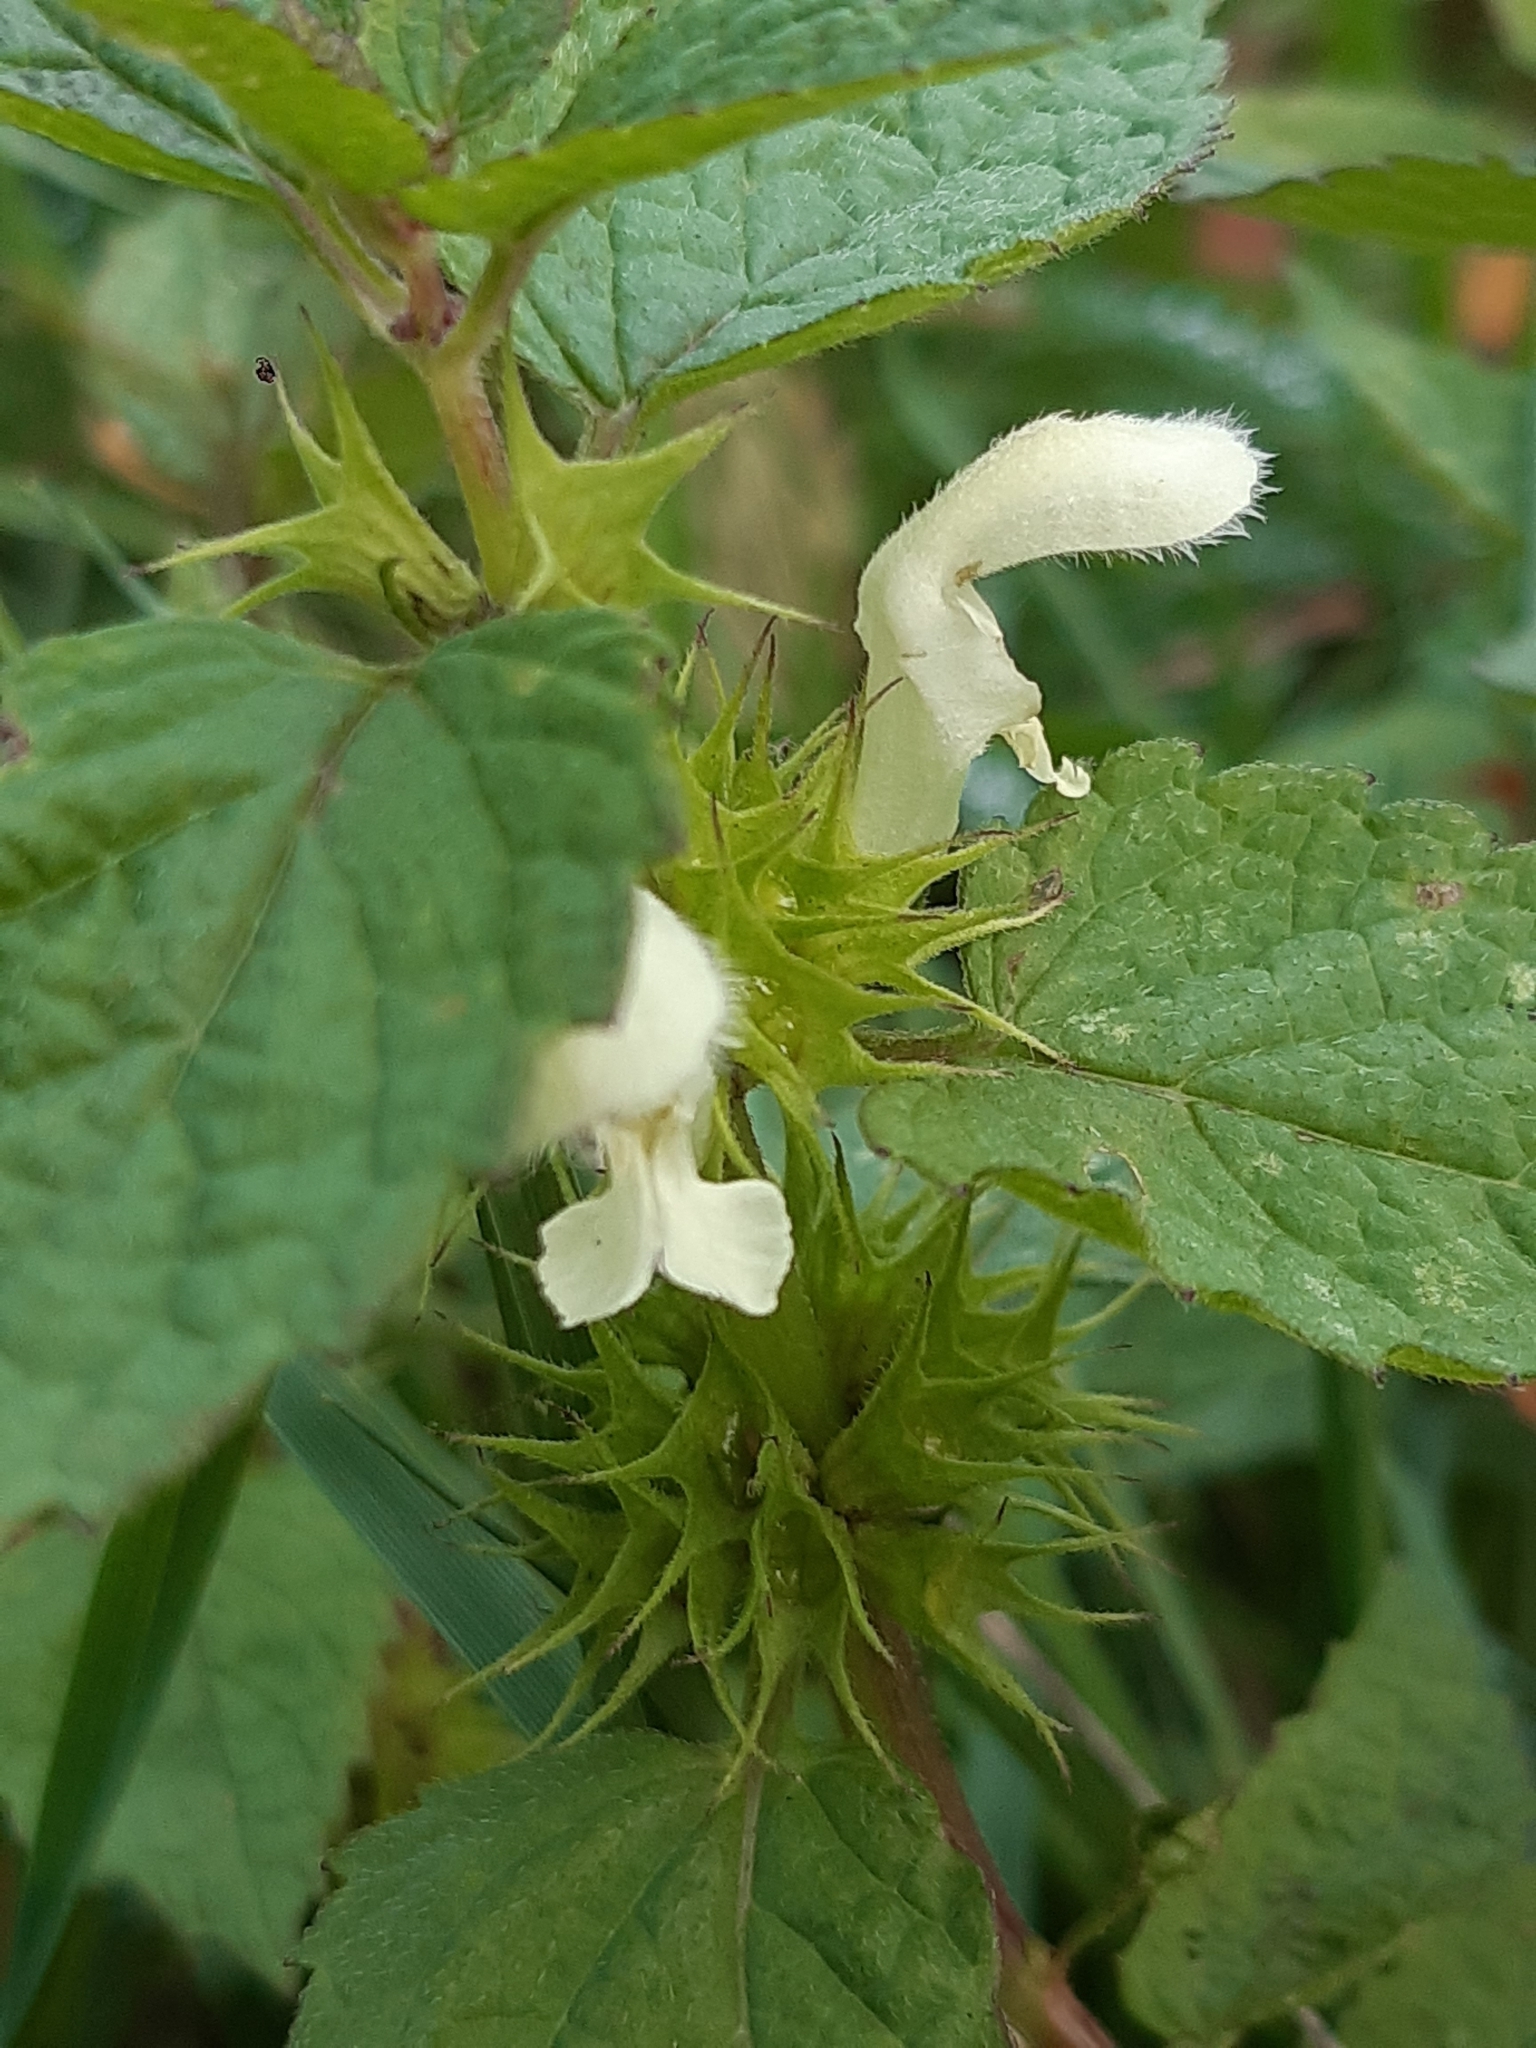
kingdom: Plantae
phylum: Tracheophyta
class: Magnoliopsida
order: Lamiales
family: Lamiaceae
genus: Lamium
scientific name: Lamium album
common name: White dead-nettle
